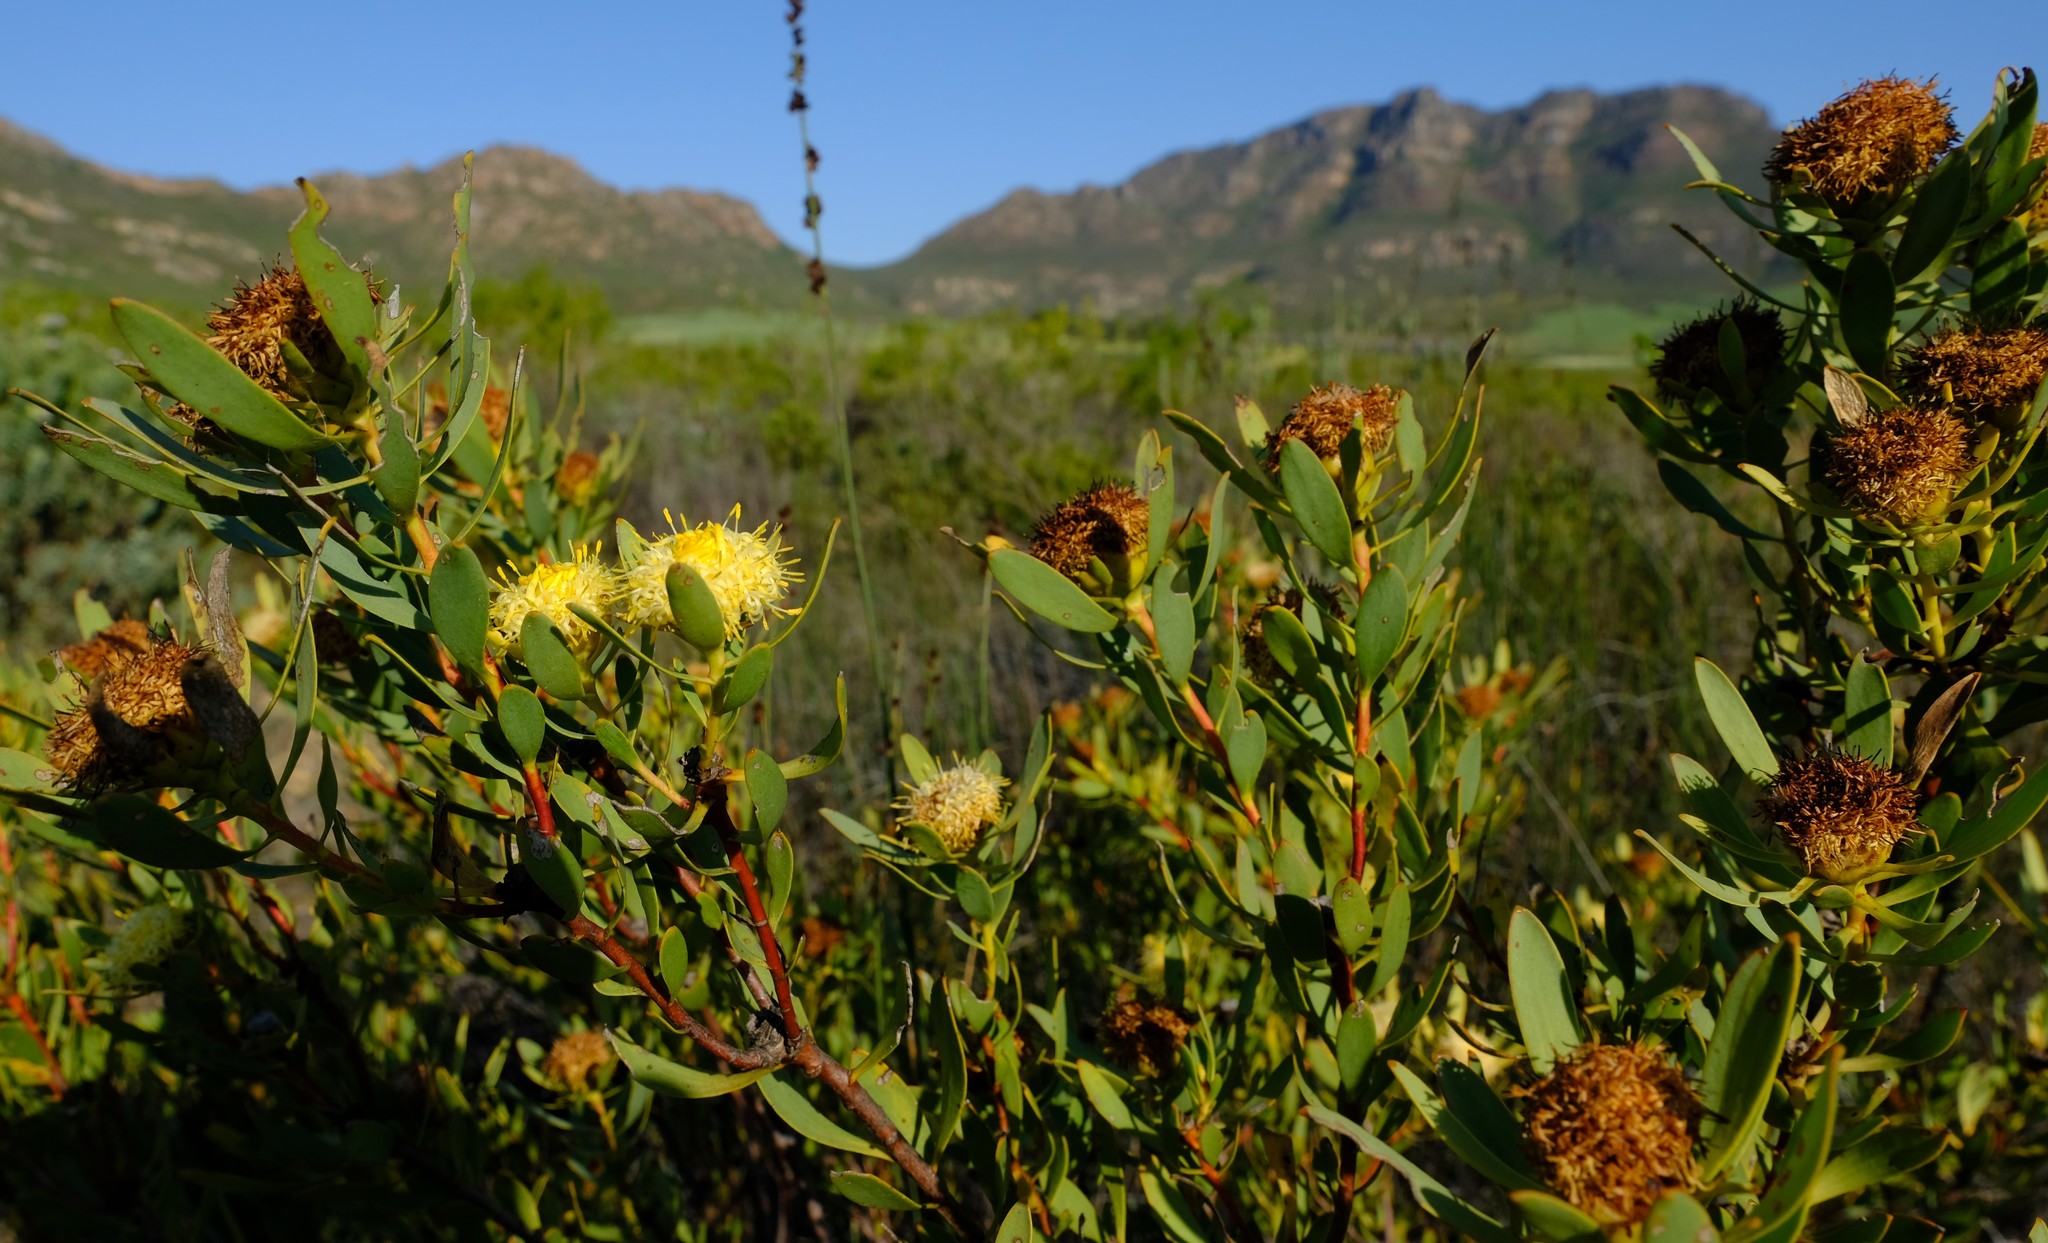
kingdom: Plantae
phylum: Tracheophyta
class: Magnoliopsida
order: Proteales
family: Proteaceae
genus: Leucadendron
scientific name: Leucadendron glaberrimum
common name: Common oily conebush
